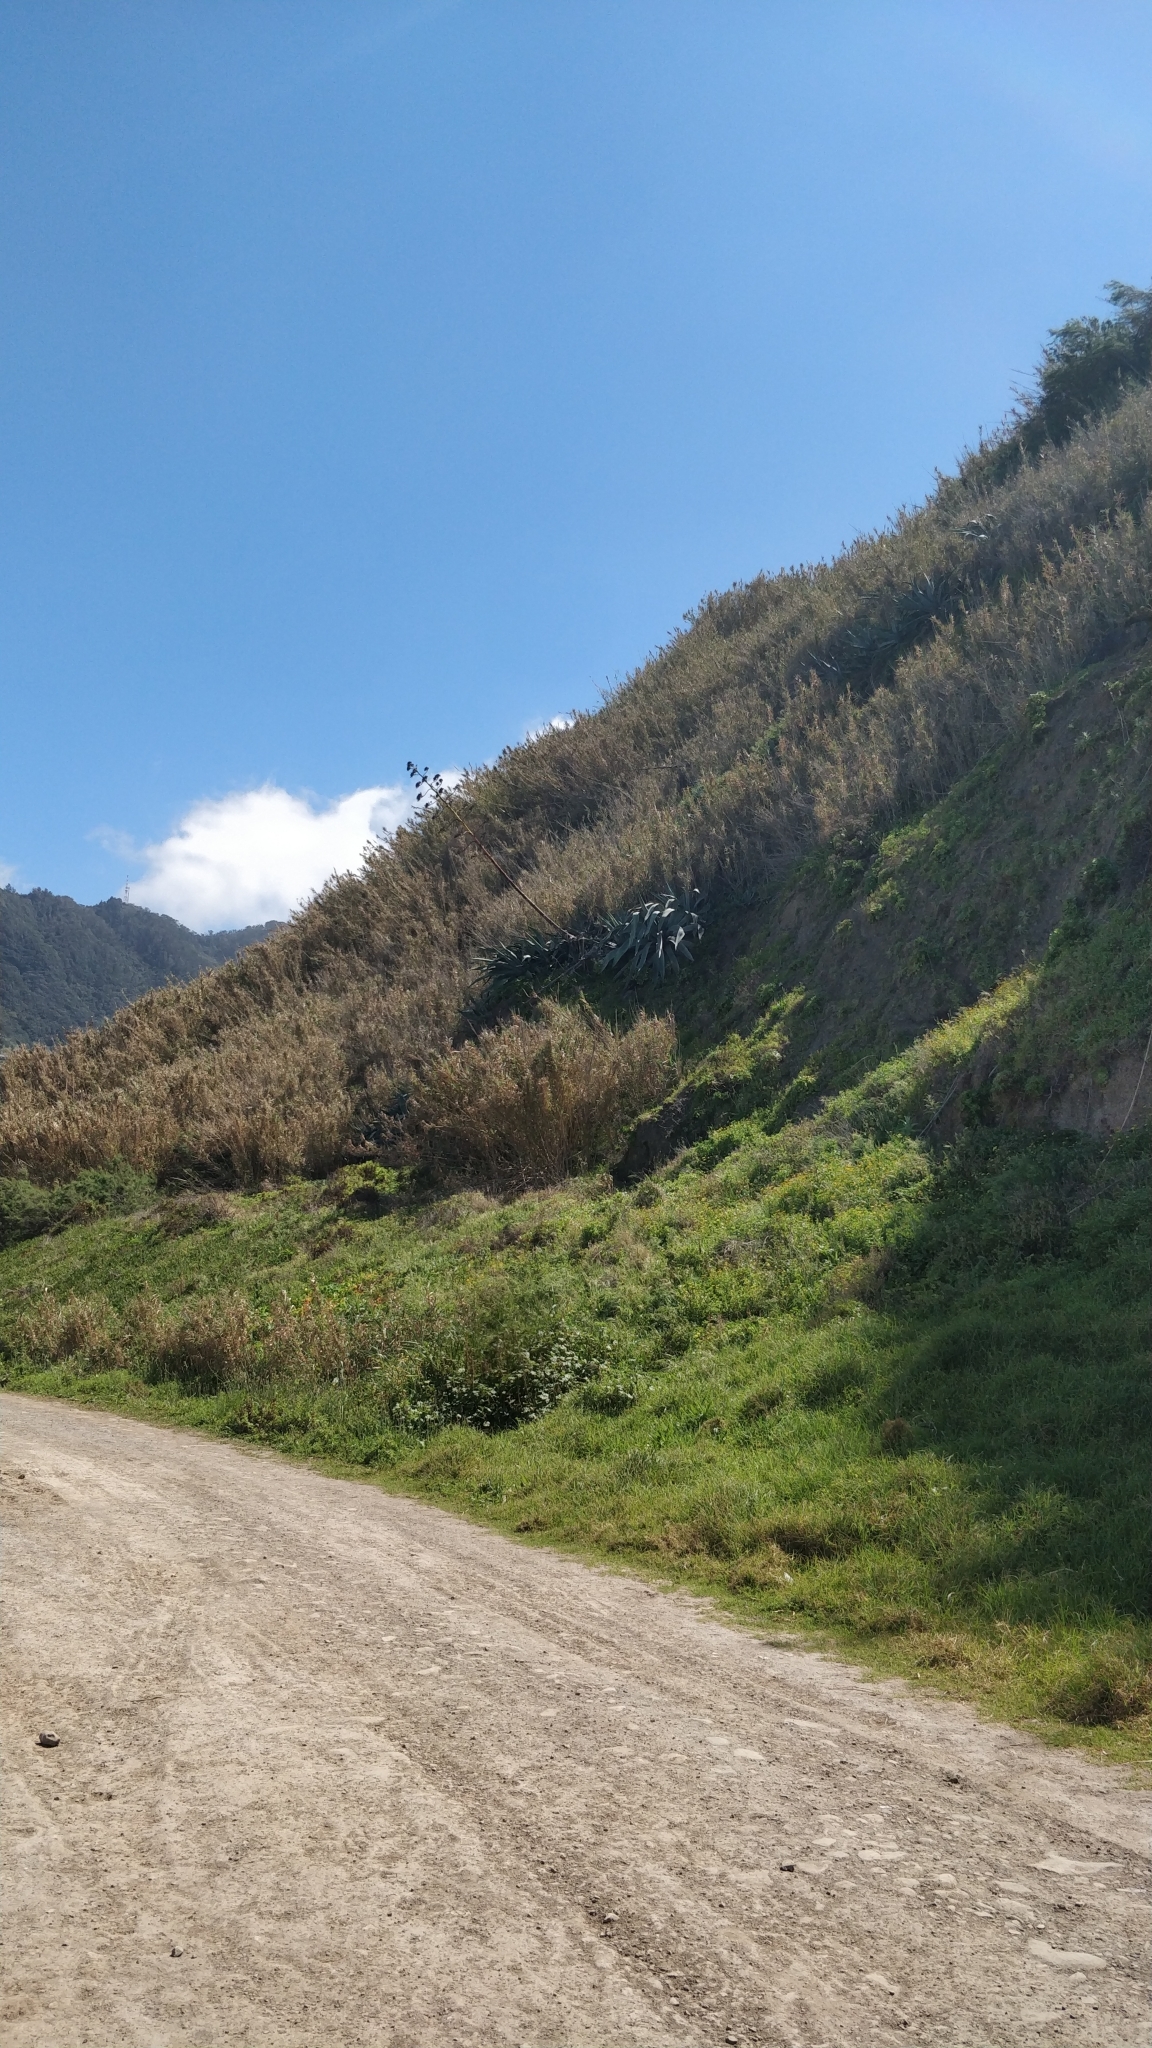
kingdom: Plantae
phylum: Tracheophyta
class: Liliopsida
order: Asparagales
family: Asparagaceae
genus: Agave
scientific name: Agave americana
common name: Centuryplant
